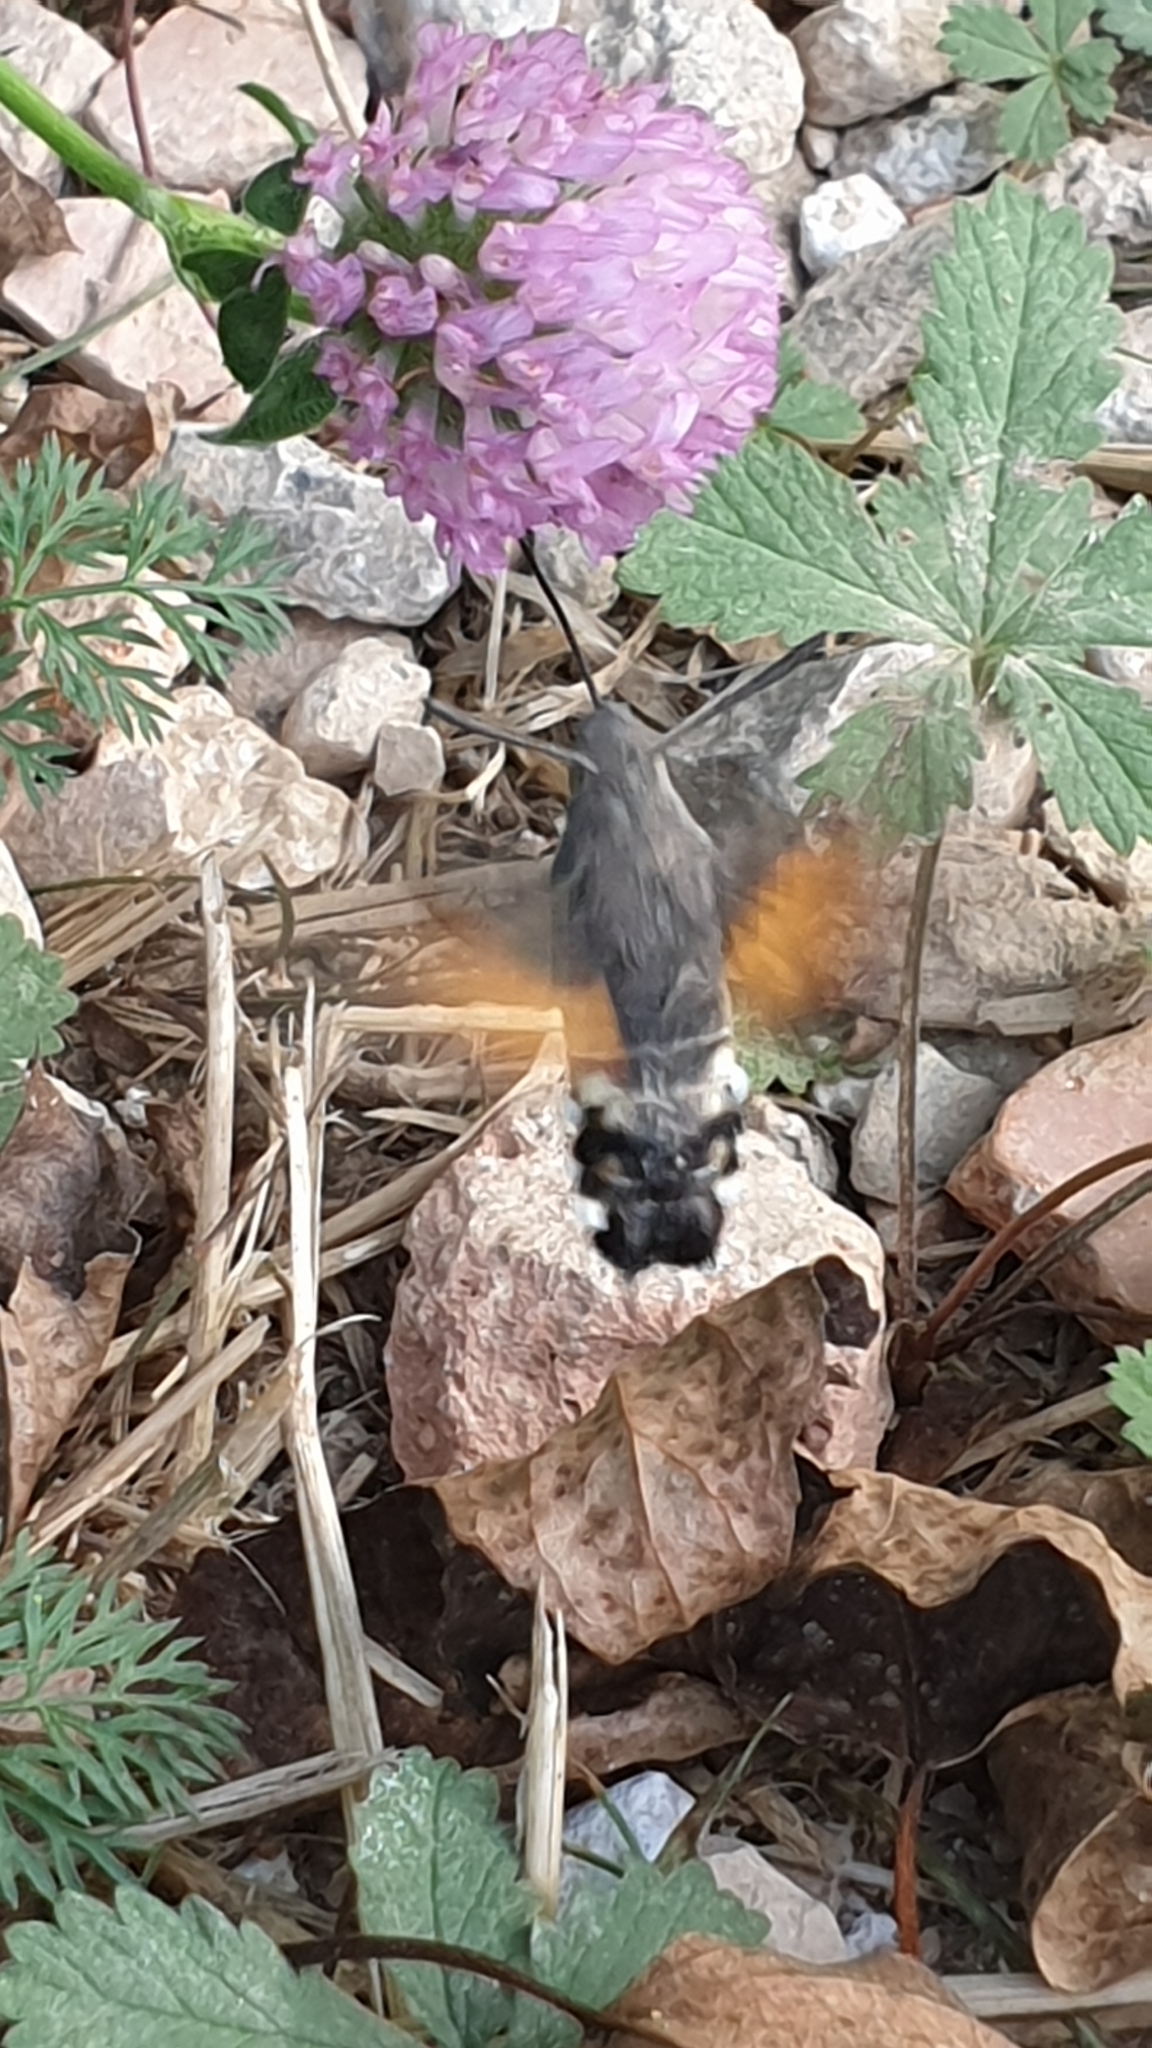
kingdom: Animalia
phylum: Arthropoda
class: Insecta
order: Lepidoptera
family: Sphingidae
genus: Macroglossum
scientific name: Macroglossum stellatarum
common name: Humming-bird hawk-moth
